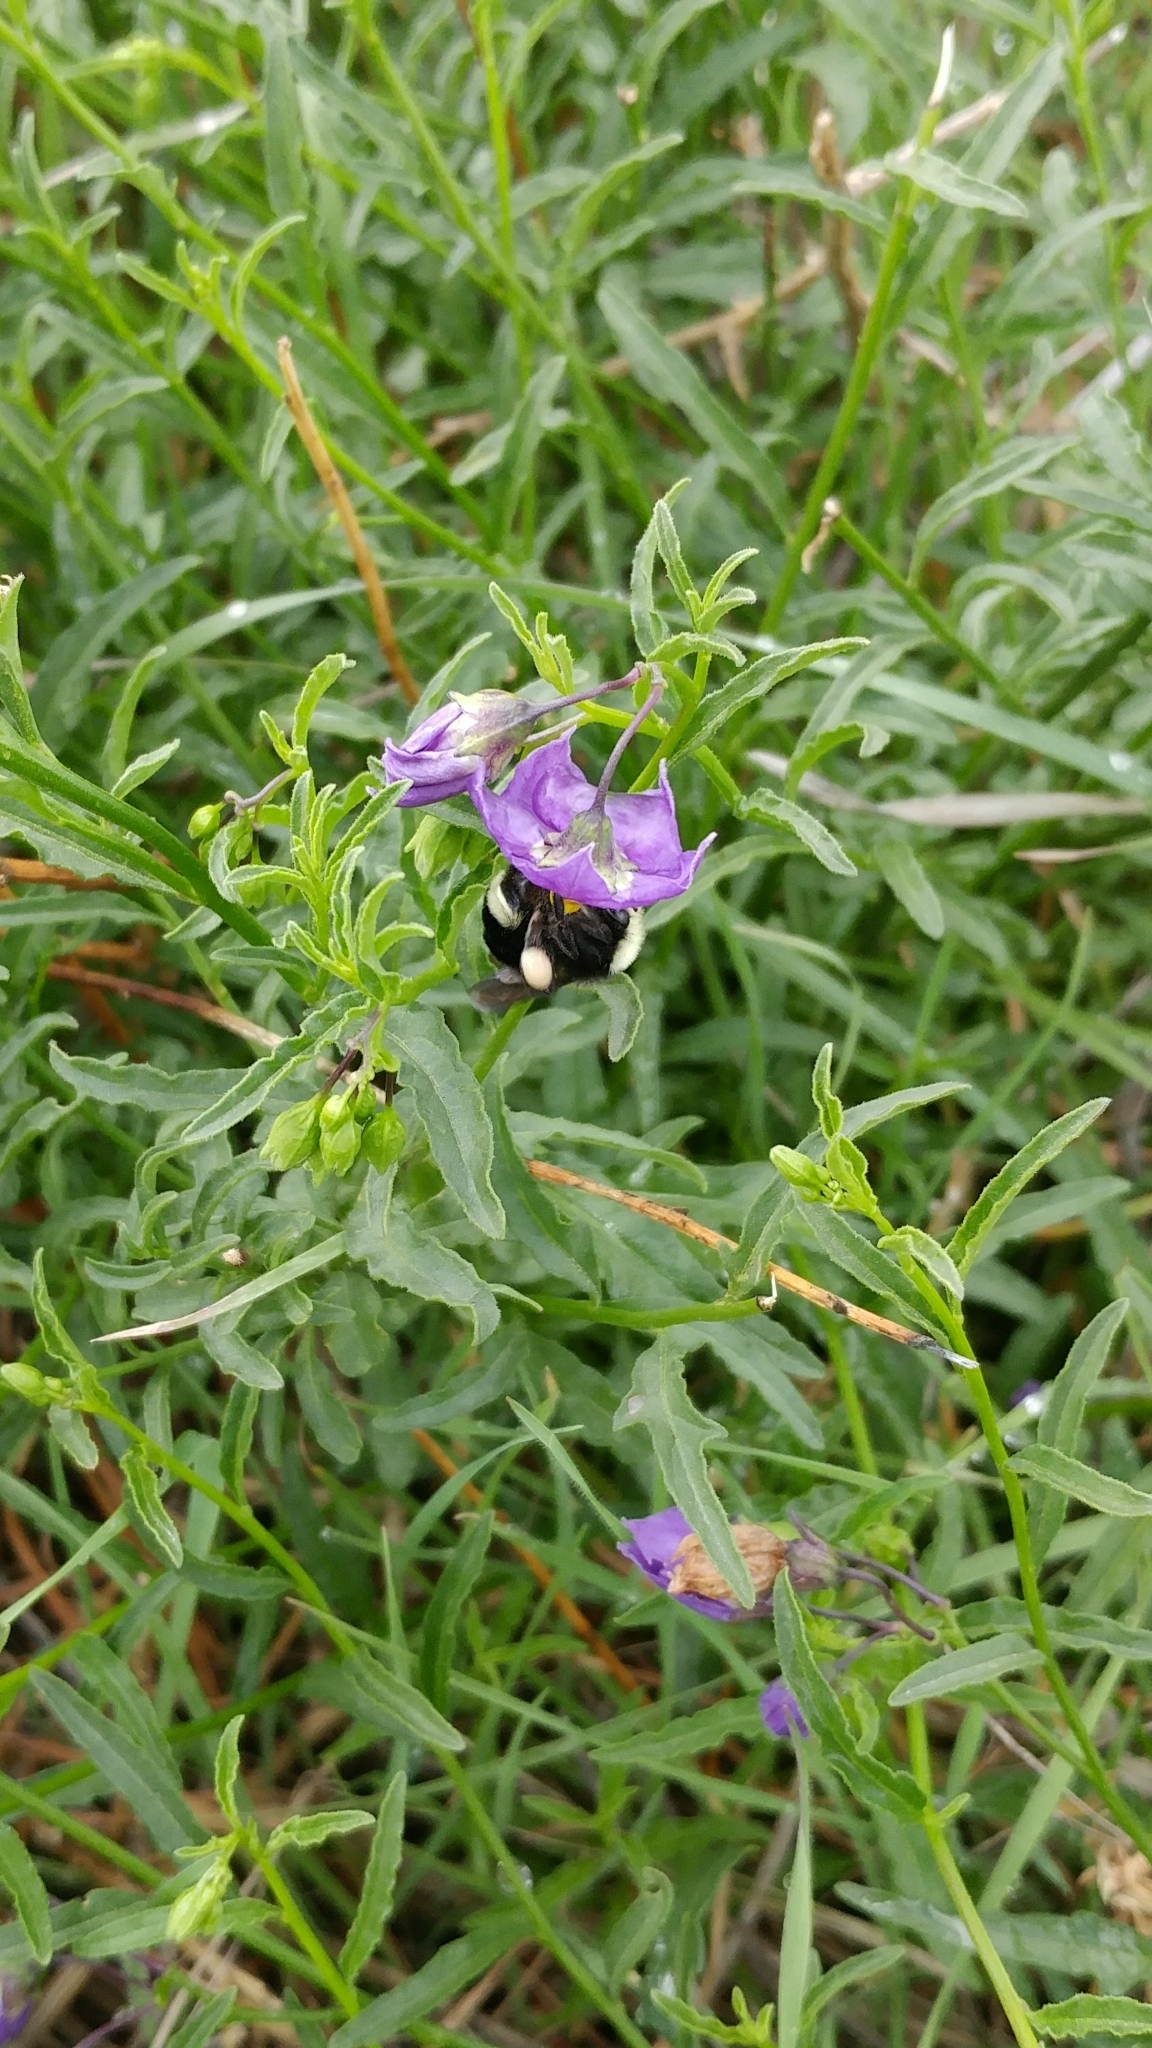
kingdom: Animalia
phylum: Arthropoda
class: Insecta
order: Hymenoptera
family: Apidae
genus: Bombus
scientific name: Bombus vosnesenskii
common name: Vosnesensky bumble bee
